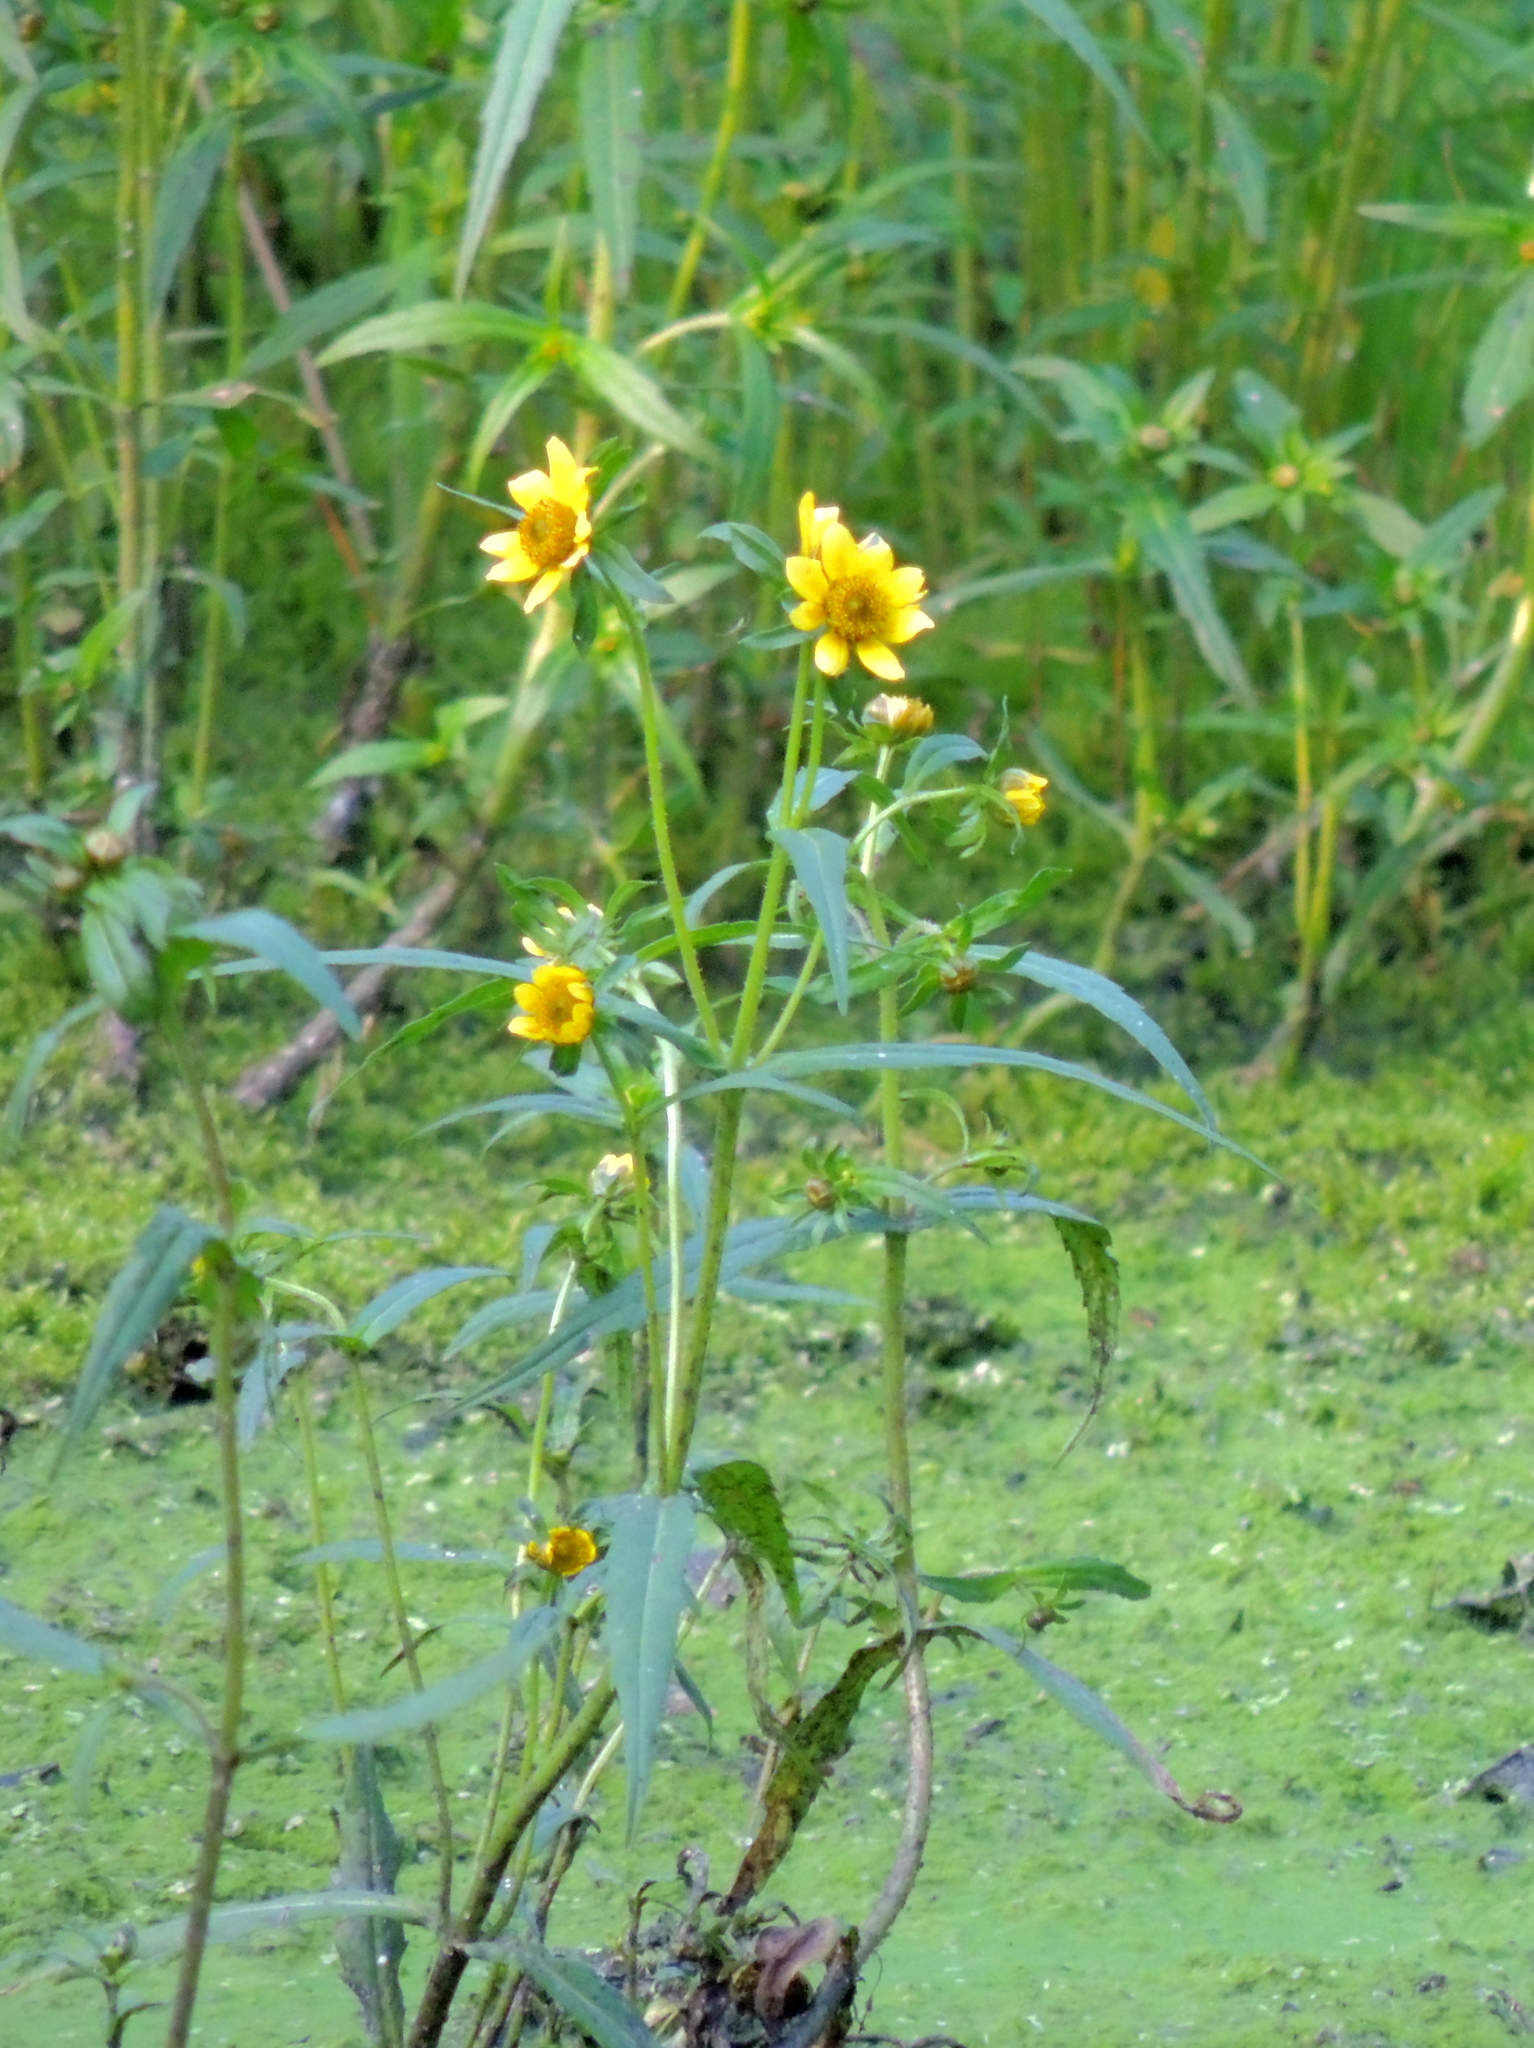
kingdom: Plantae
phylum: Tracheophyta
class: Magnoliopsida
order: Asterales
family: Asteraceae
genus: Bidens
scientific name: Bidens cernua
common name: Nodding bur-marigold
